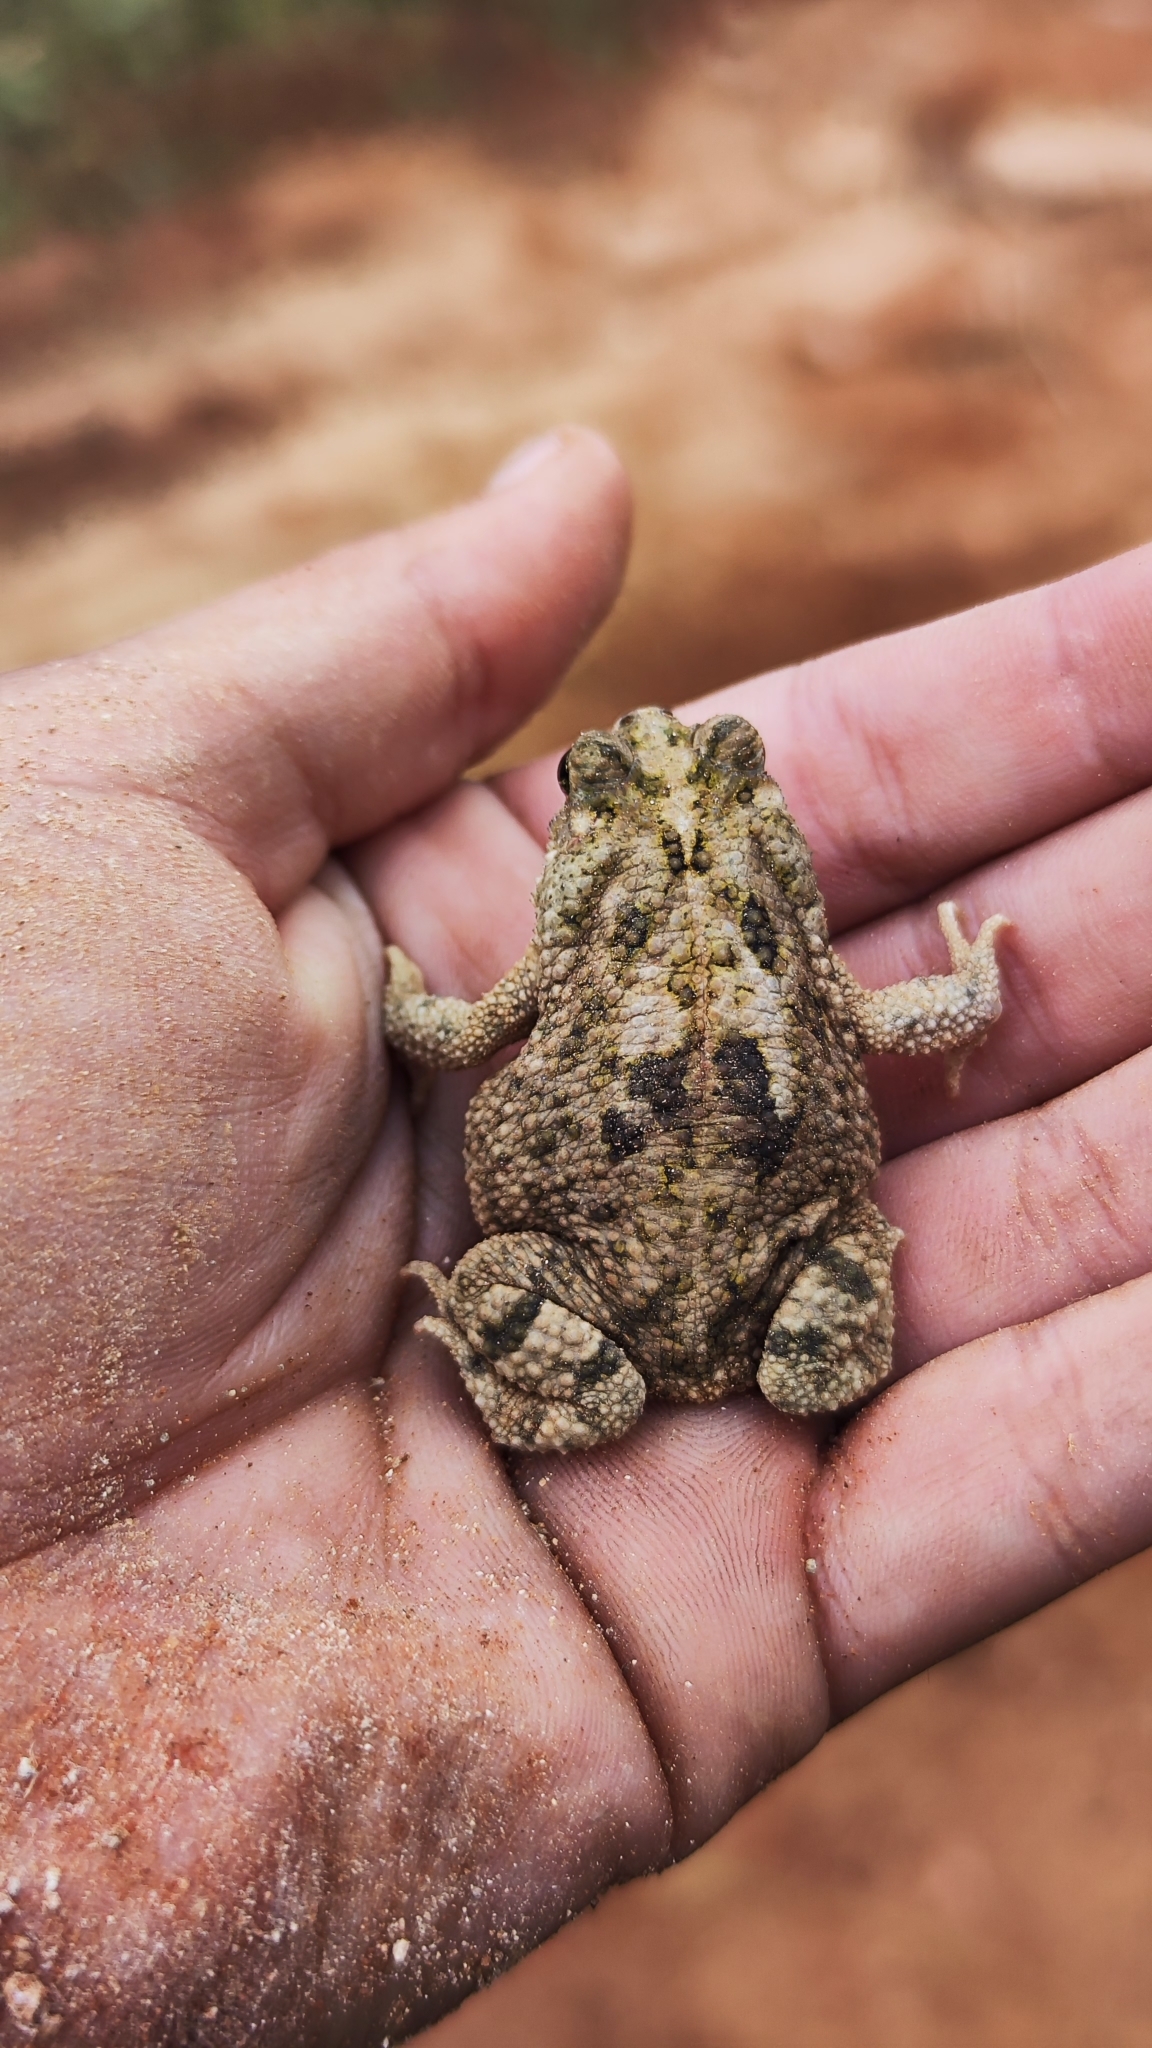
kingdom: Animalia
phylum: Chordata
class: Amphibia
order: Anura
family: Bufonidae
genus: Rhinella
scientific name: Rhinella granulosa
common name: Common lesser toad
